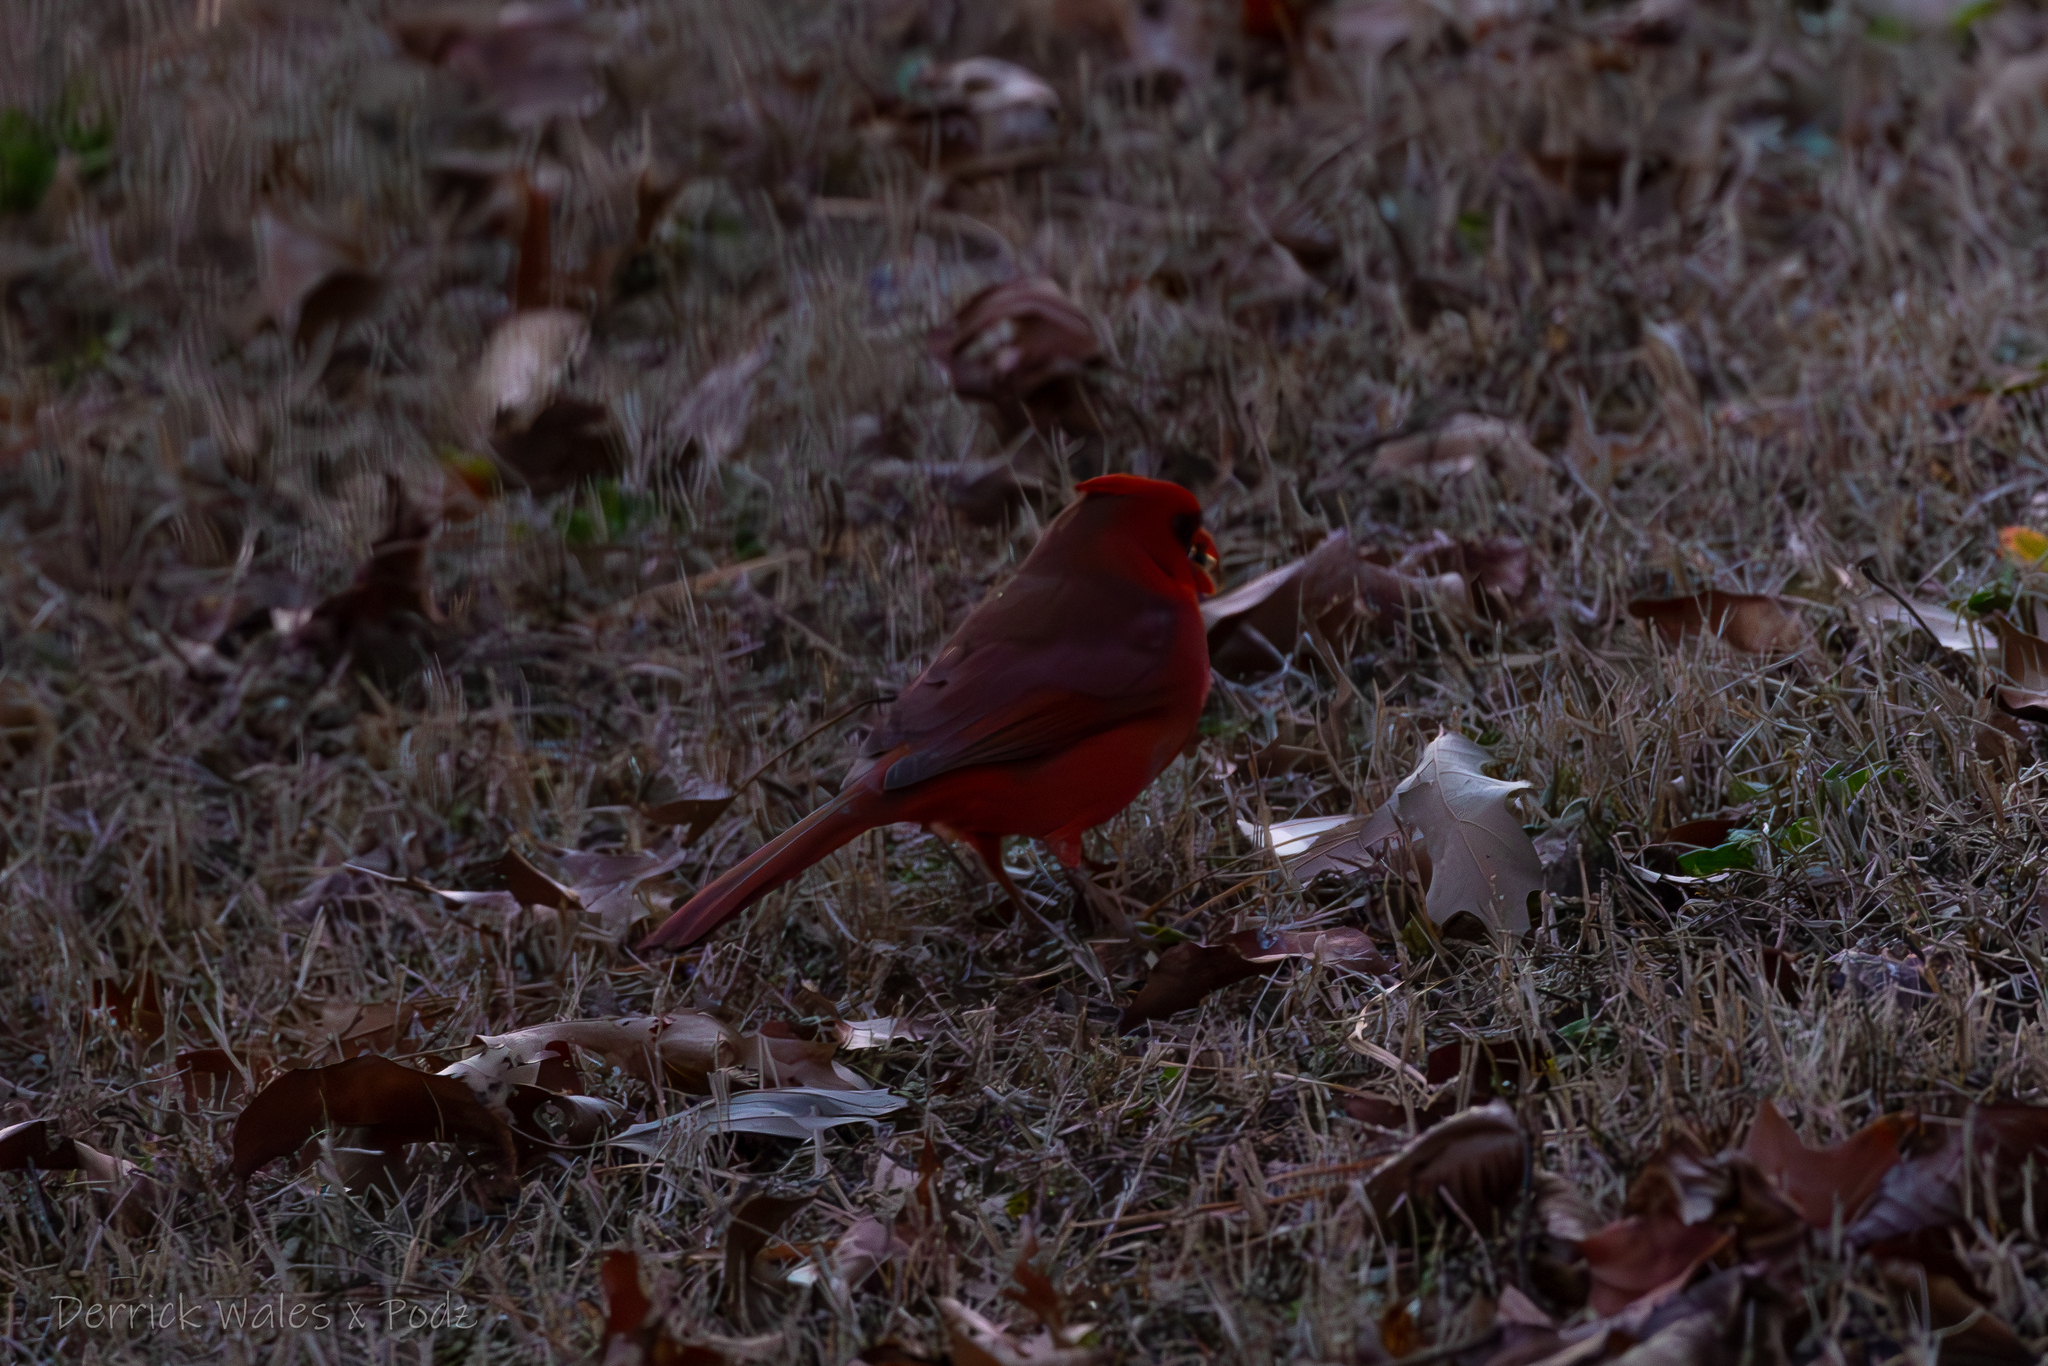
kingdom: Animalia
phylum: Chordata
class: Aves
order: Passeriformes
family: Cardinalidae
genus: Cardinalis
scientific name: Cardinalis cardinalis
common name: Northern cardinal
